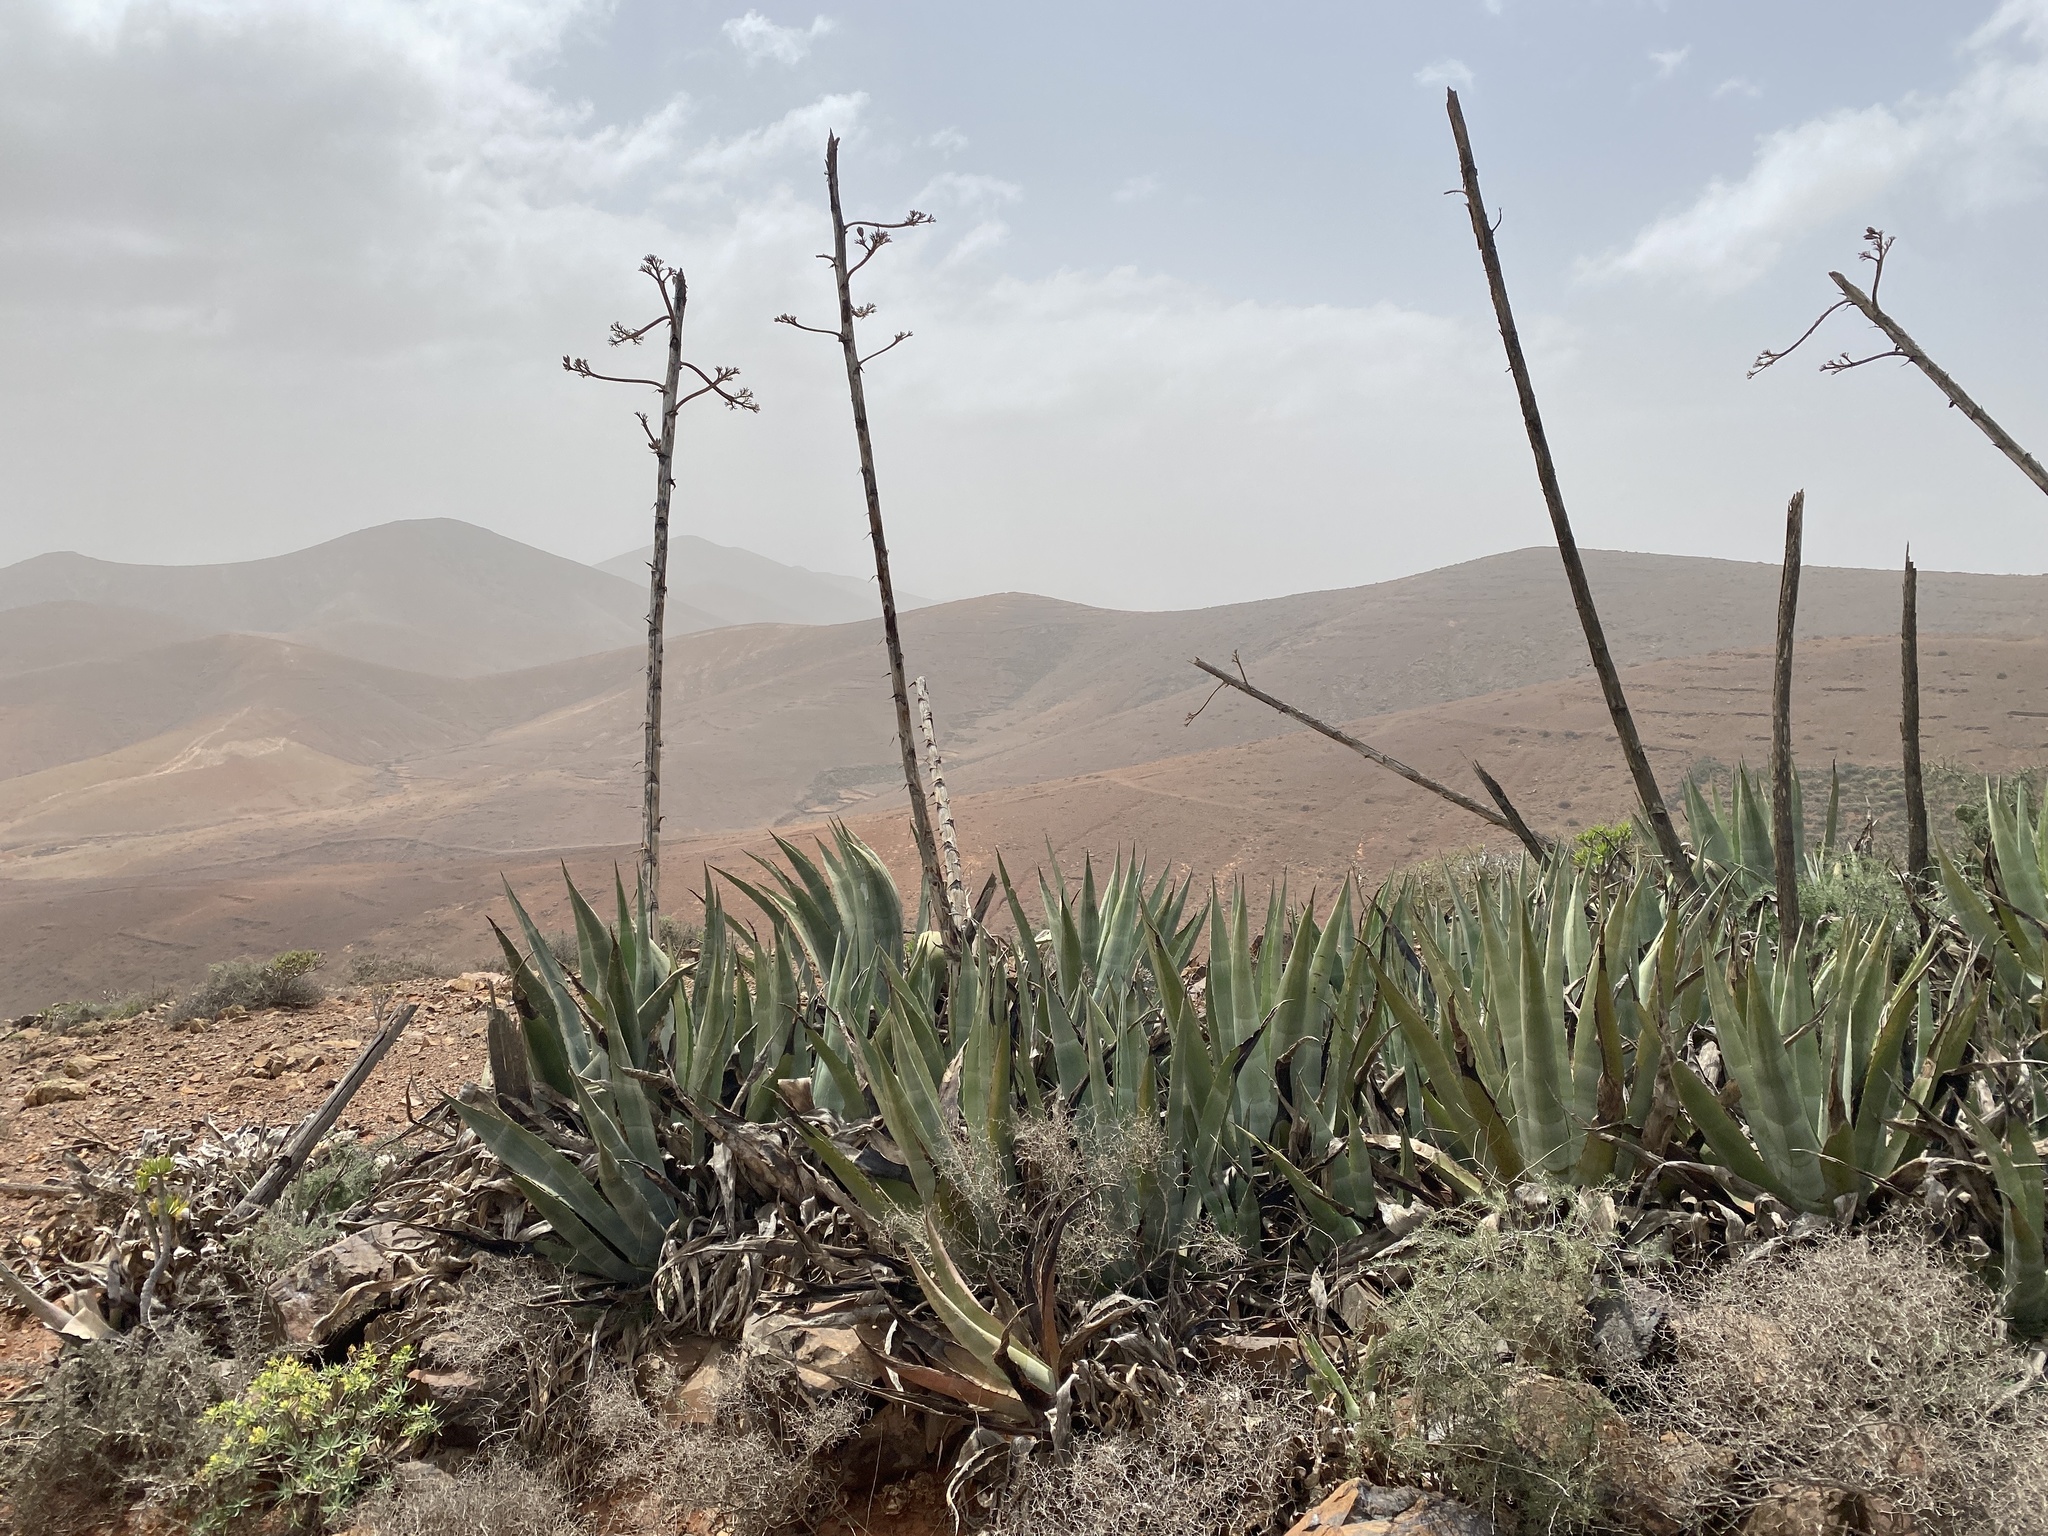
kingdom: Plantae
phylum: Tracheophyta
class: Liliopsida
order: Asparagales
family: Asparagaceae
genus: Agave
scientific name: Agave americana
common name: Centuryplant
